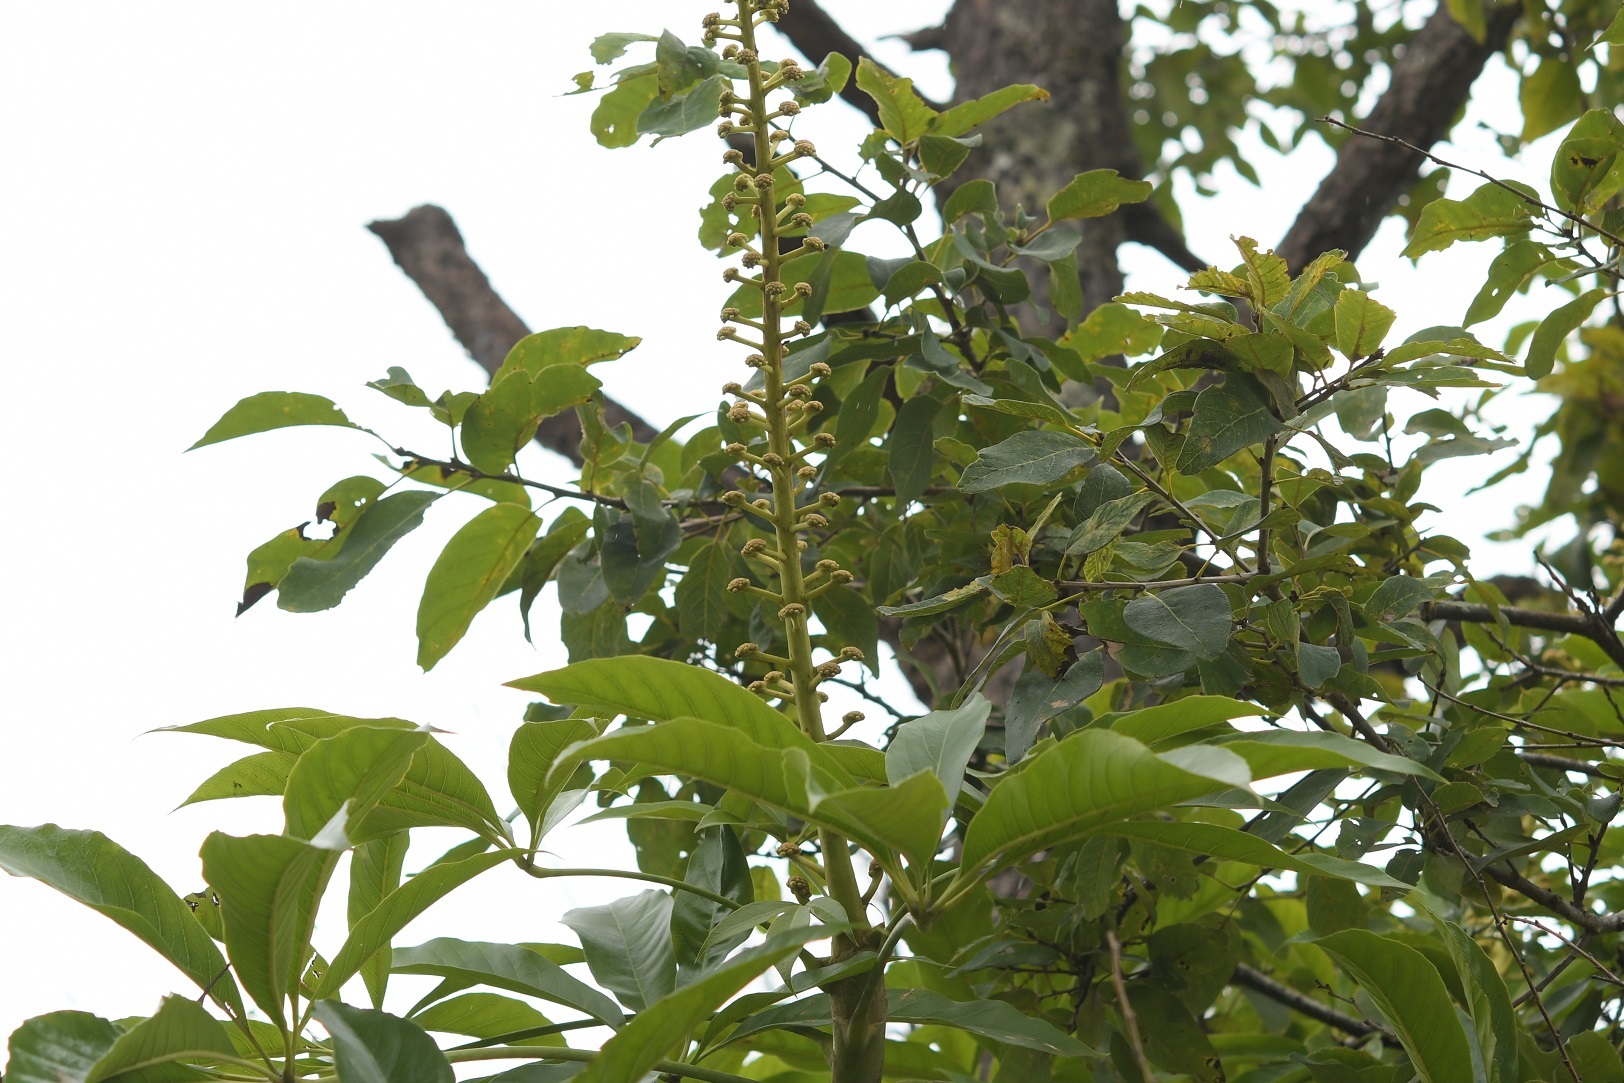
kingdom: Plantae
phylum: Tracheophyta
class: Magnoliopsida
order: Apiales
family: Araliaceae
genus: Oreopanax
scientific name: Oreopanax xalapensis
